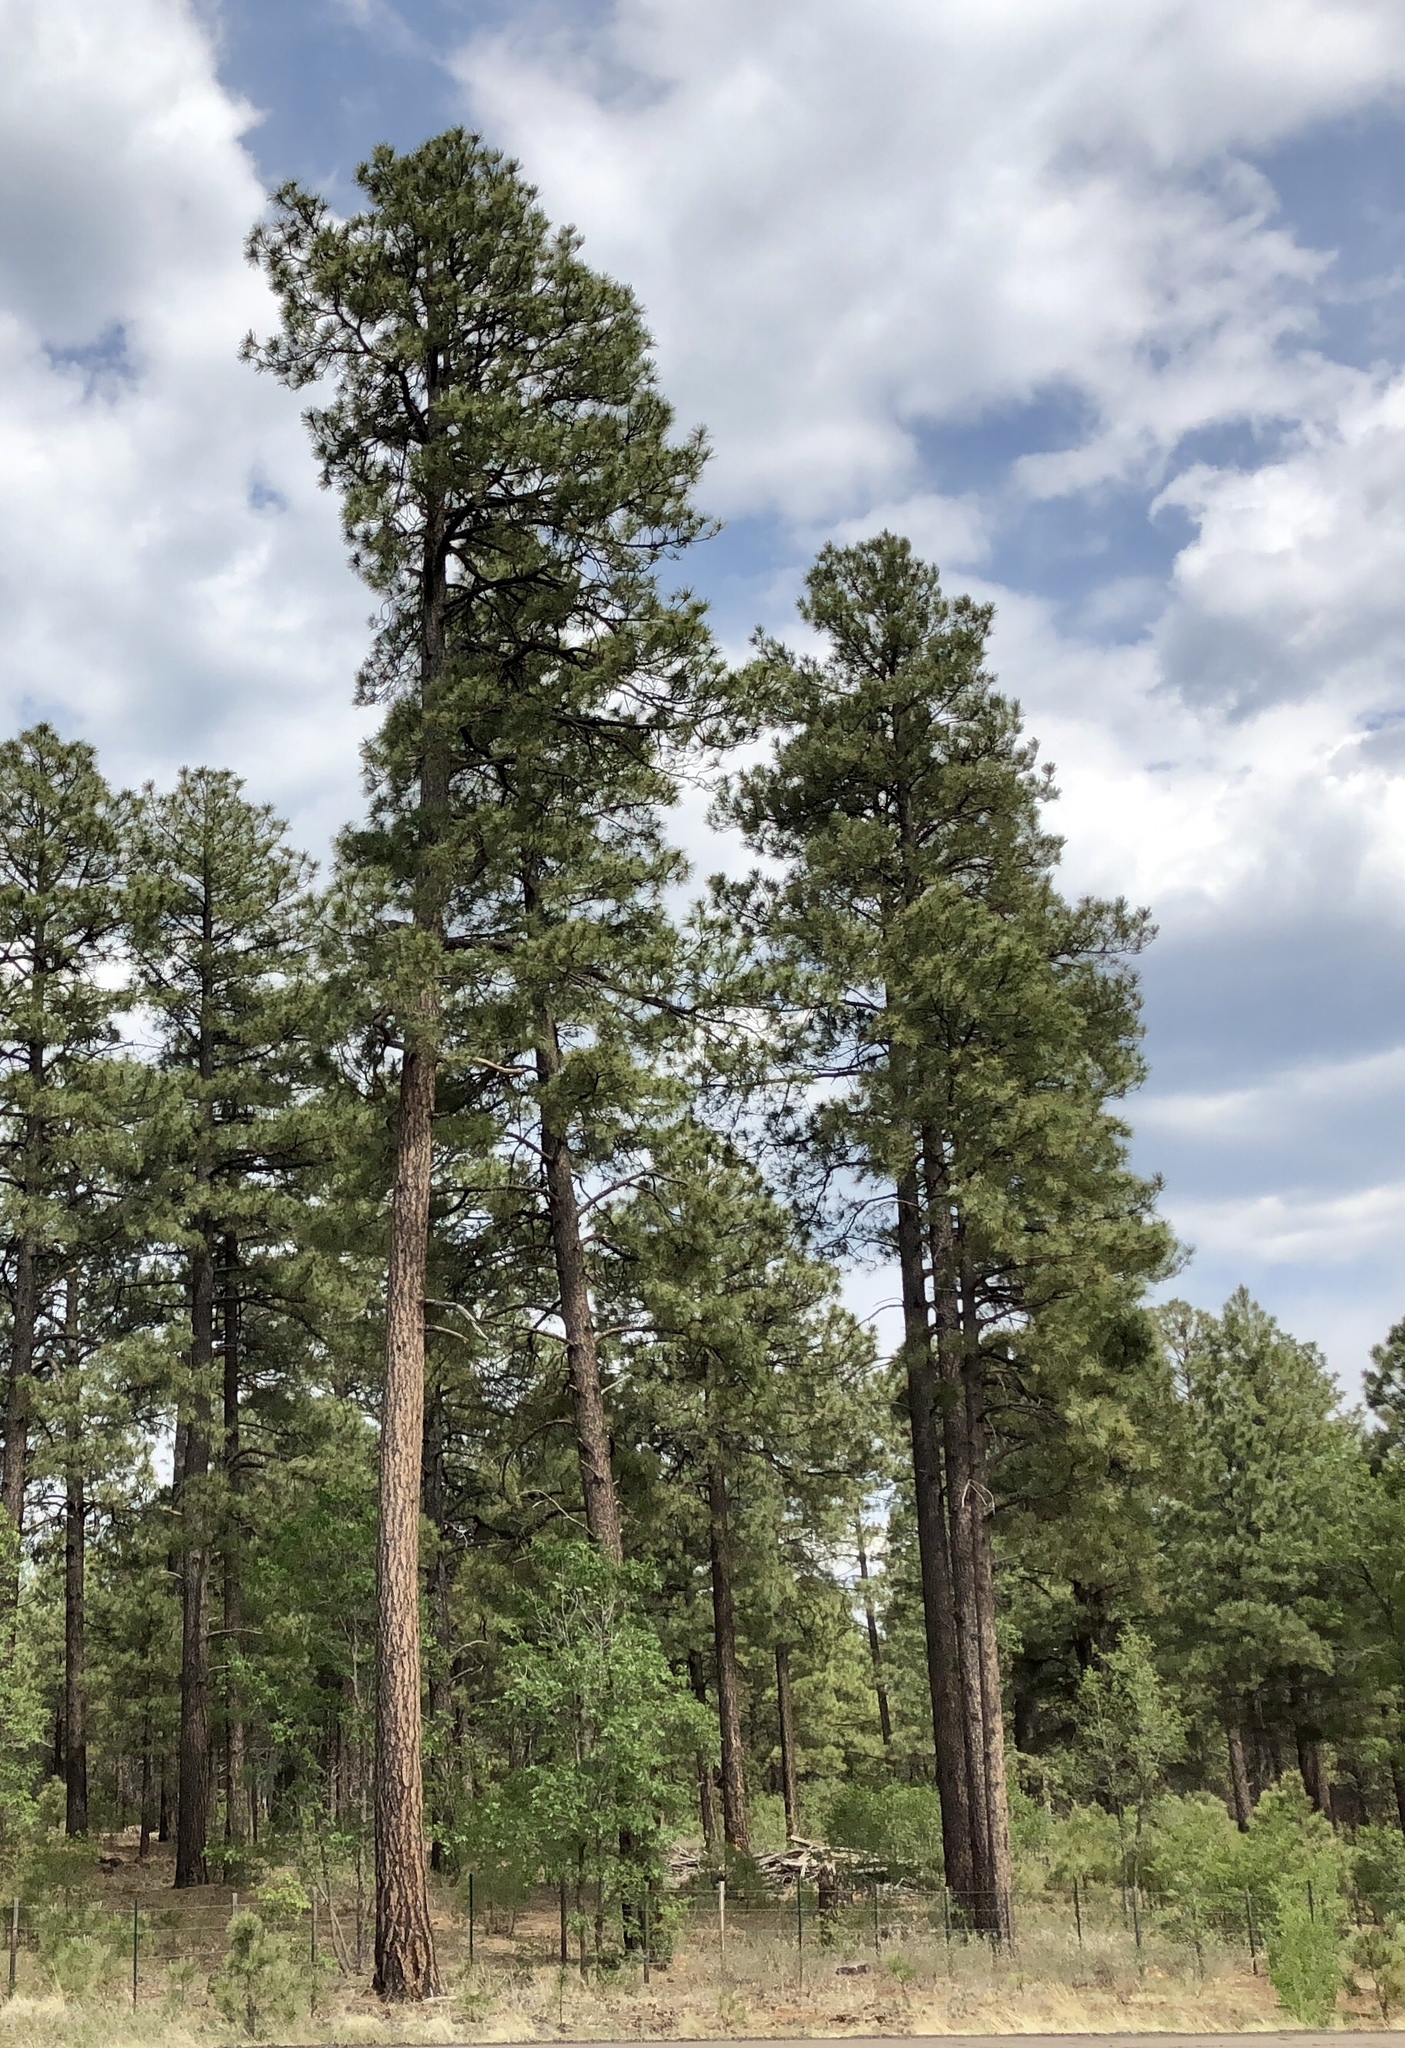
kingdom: Plantae
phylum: Tracheophyta
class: Pinopsida
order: Pinales
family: Pinaceae
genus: Pinus
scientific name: Pinus ponderosa
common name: Western yellow-pine
